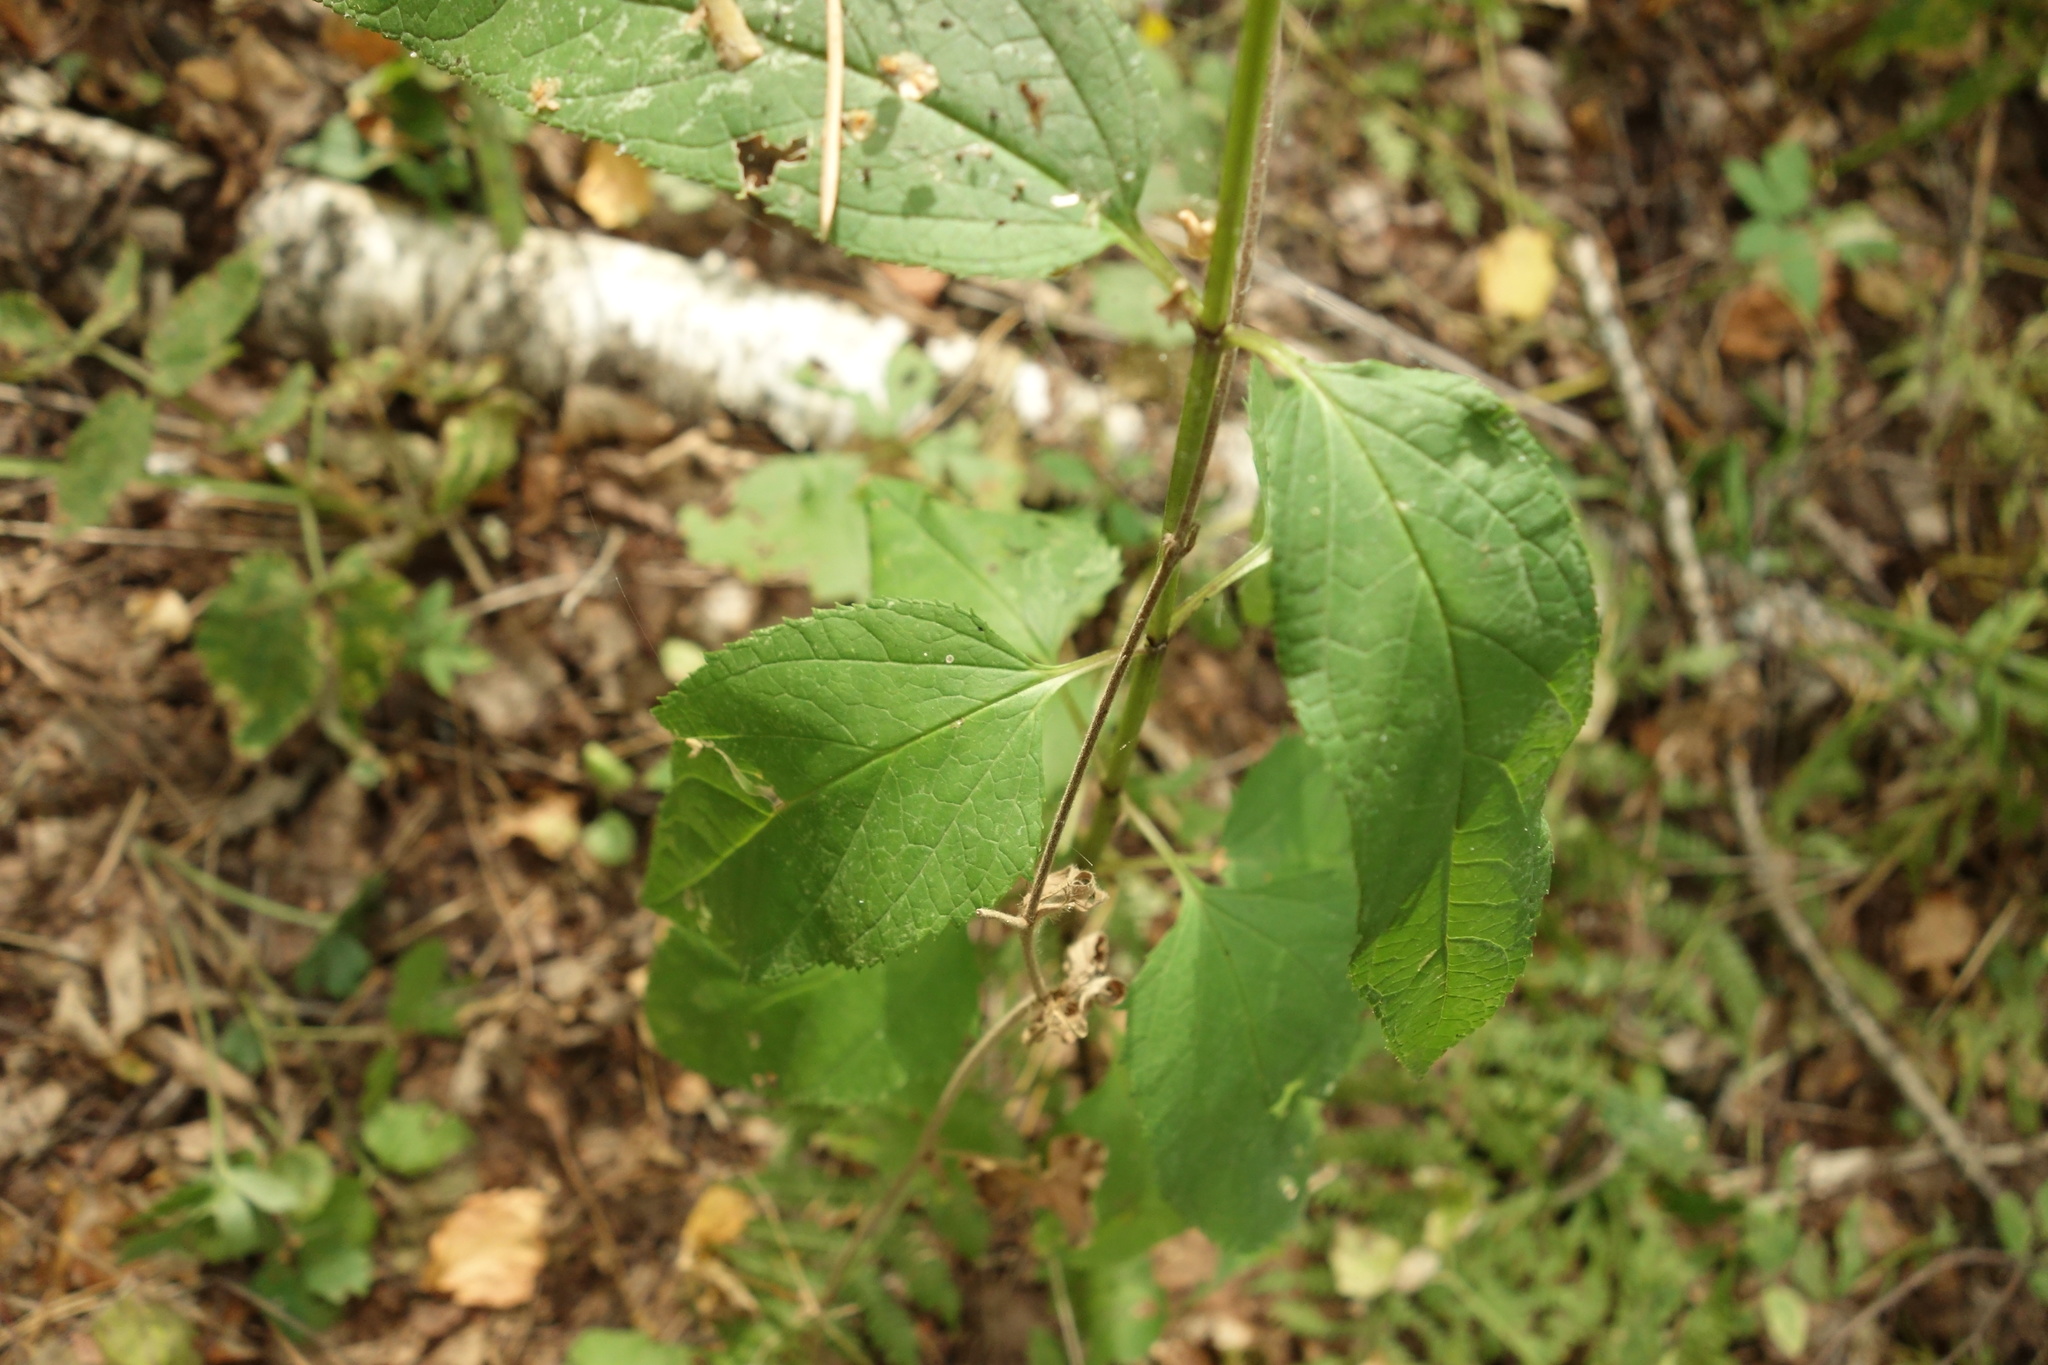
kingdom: Plantae
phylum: Tracheophyta
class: Magnoliopsida
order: Lamiales
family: Scrophulariaceae
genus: Scrophularia
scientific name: Scrophularia nodosa
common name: Common figwort
